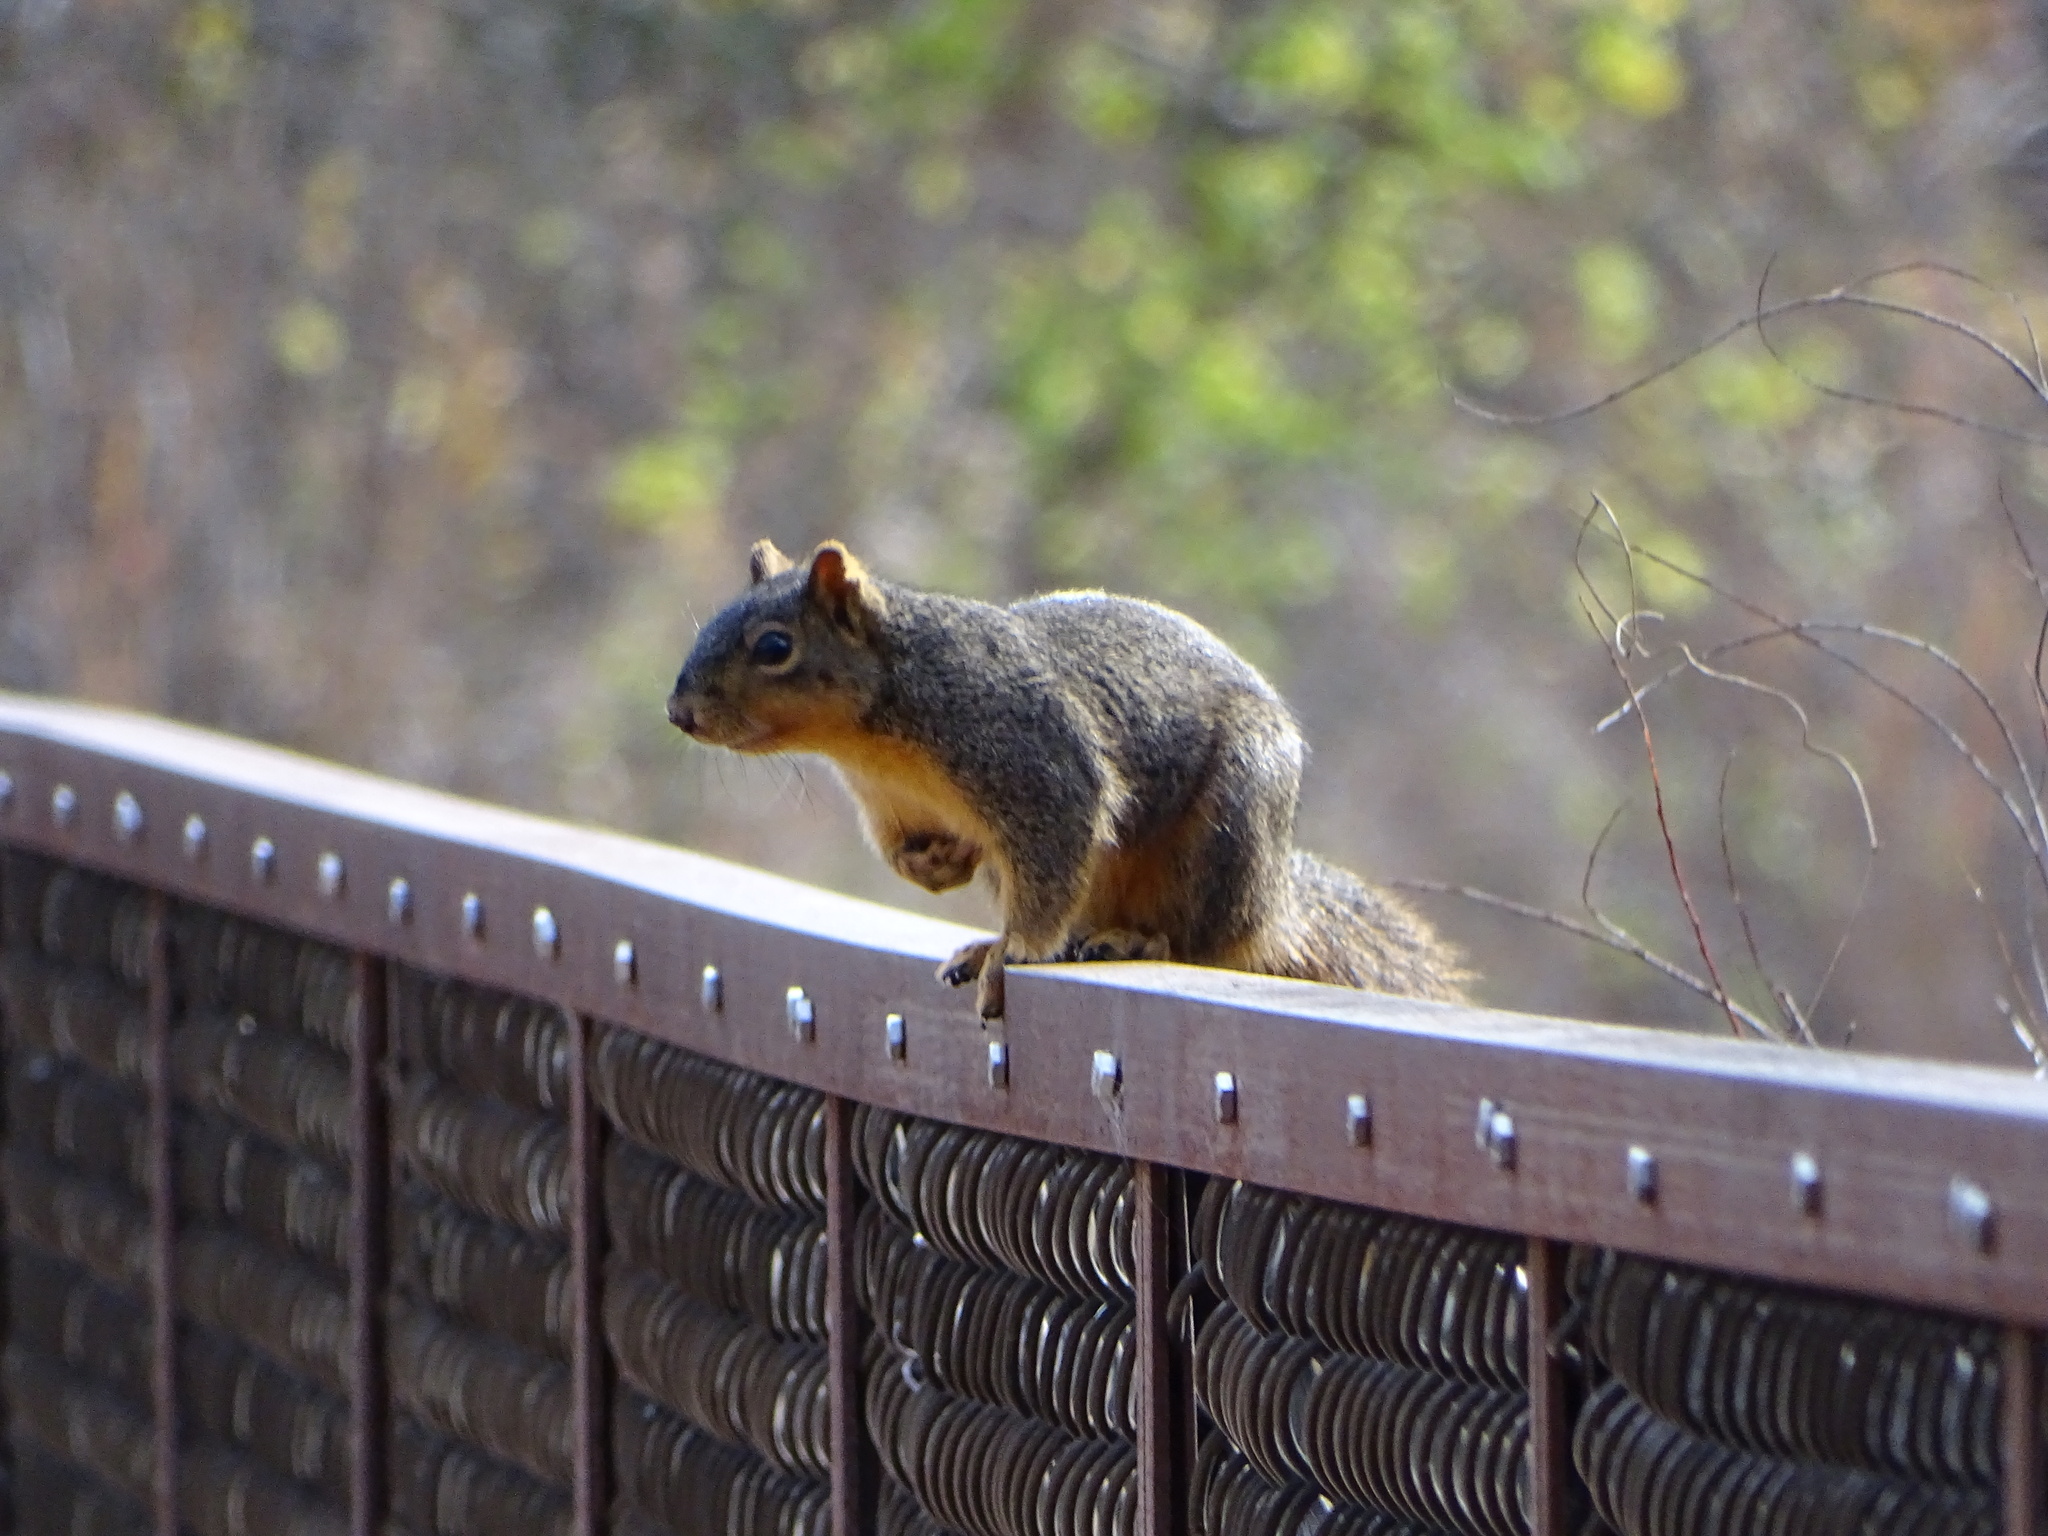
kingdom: Animalia
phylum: Chordata
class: Mammalia
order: Rodentia
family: Sciuridae
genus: Sciurus
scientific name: Sciurus niger
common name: Fox squirrel
